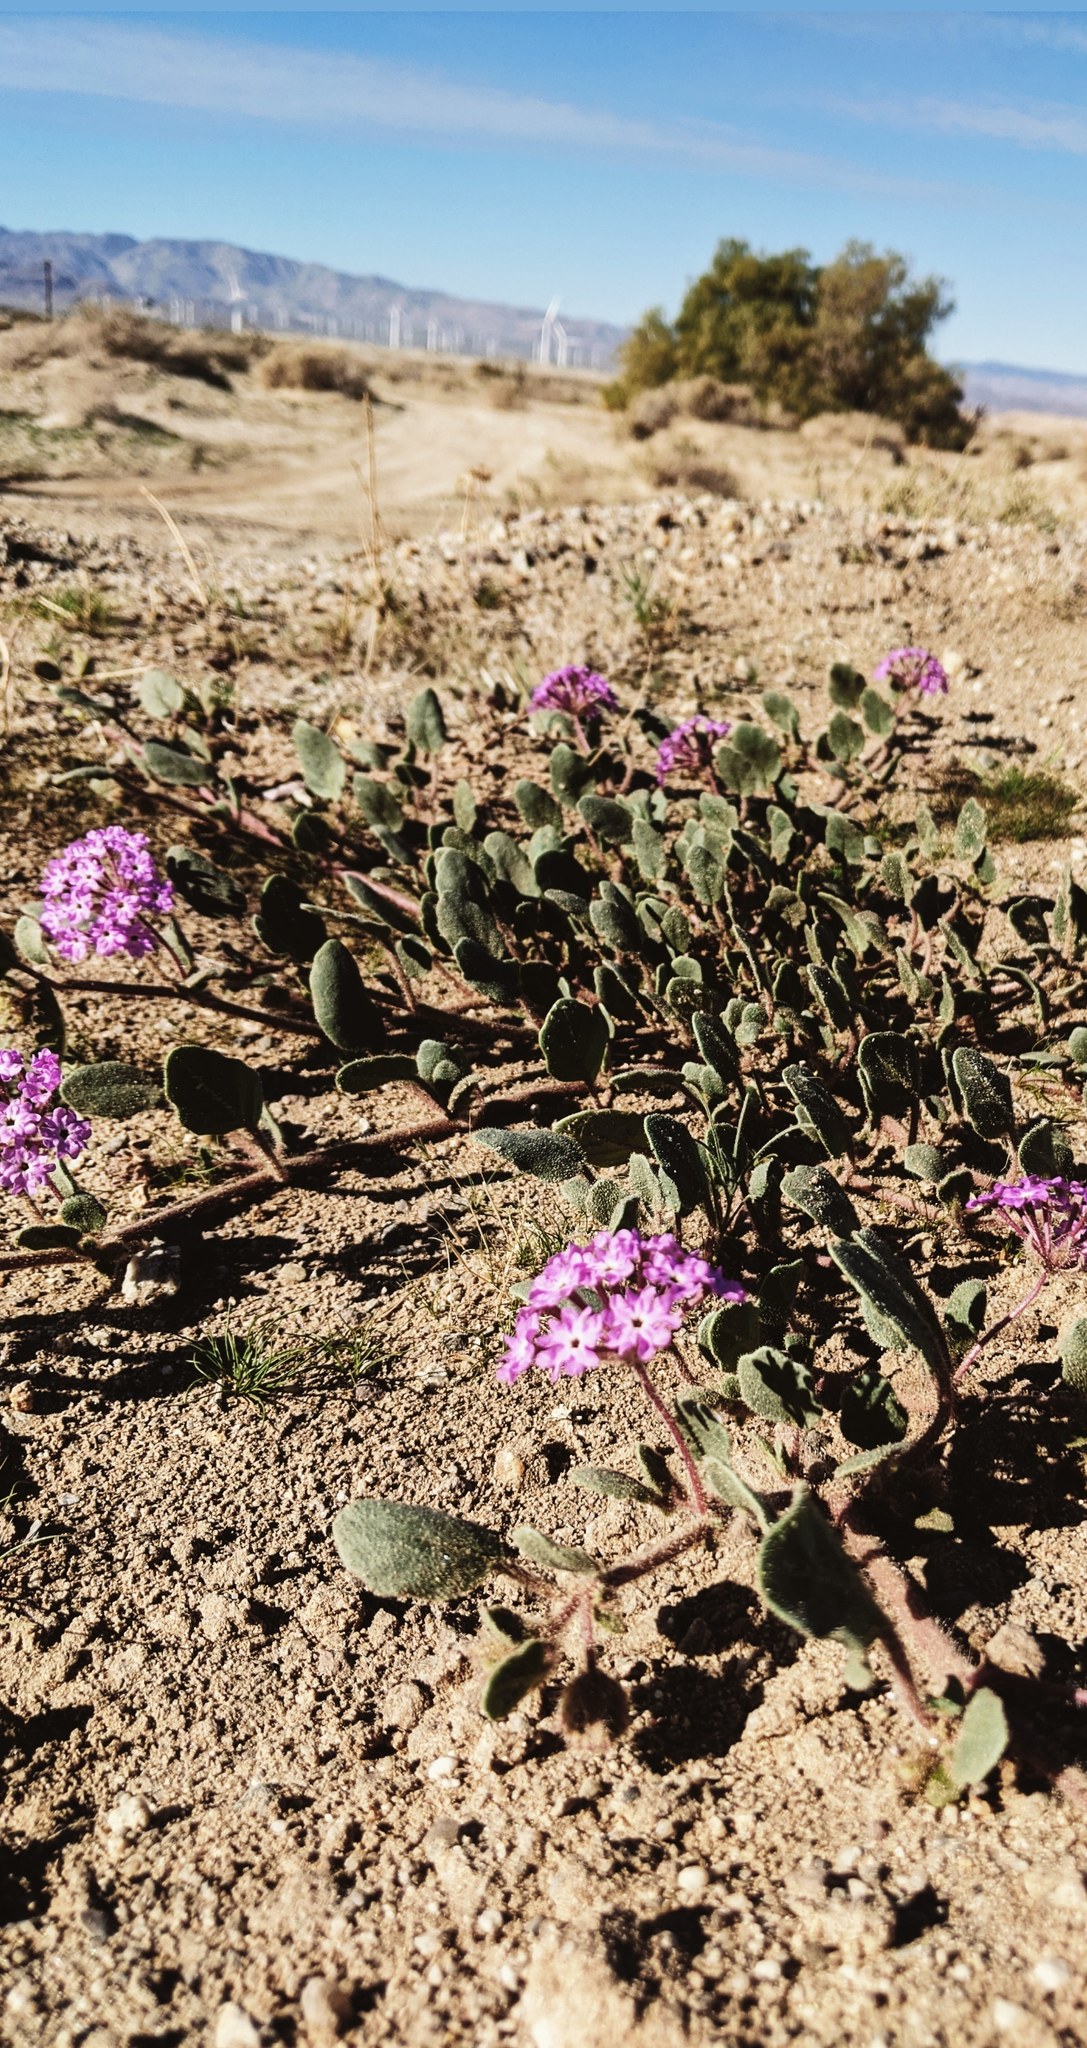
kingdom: Plantae
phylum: Tracheophyta
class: Magnoliopsida
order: Caryophyllales
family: Nyctaginaceae
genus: Abronia
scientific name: Abronia villosa
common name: Desert sand-verbena
